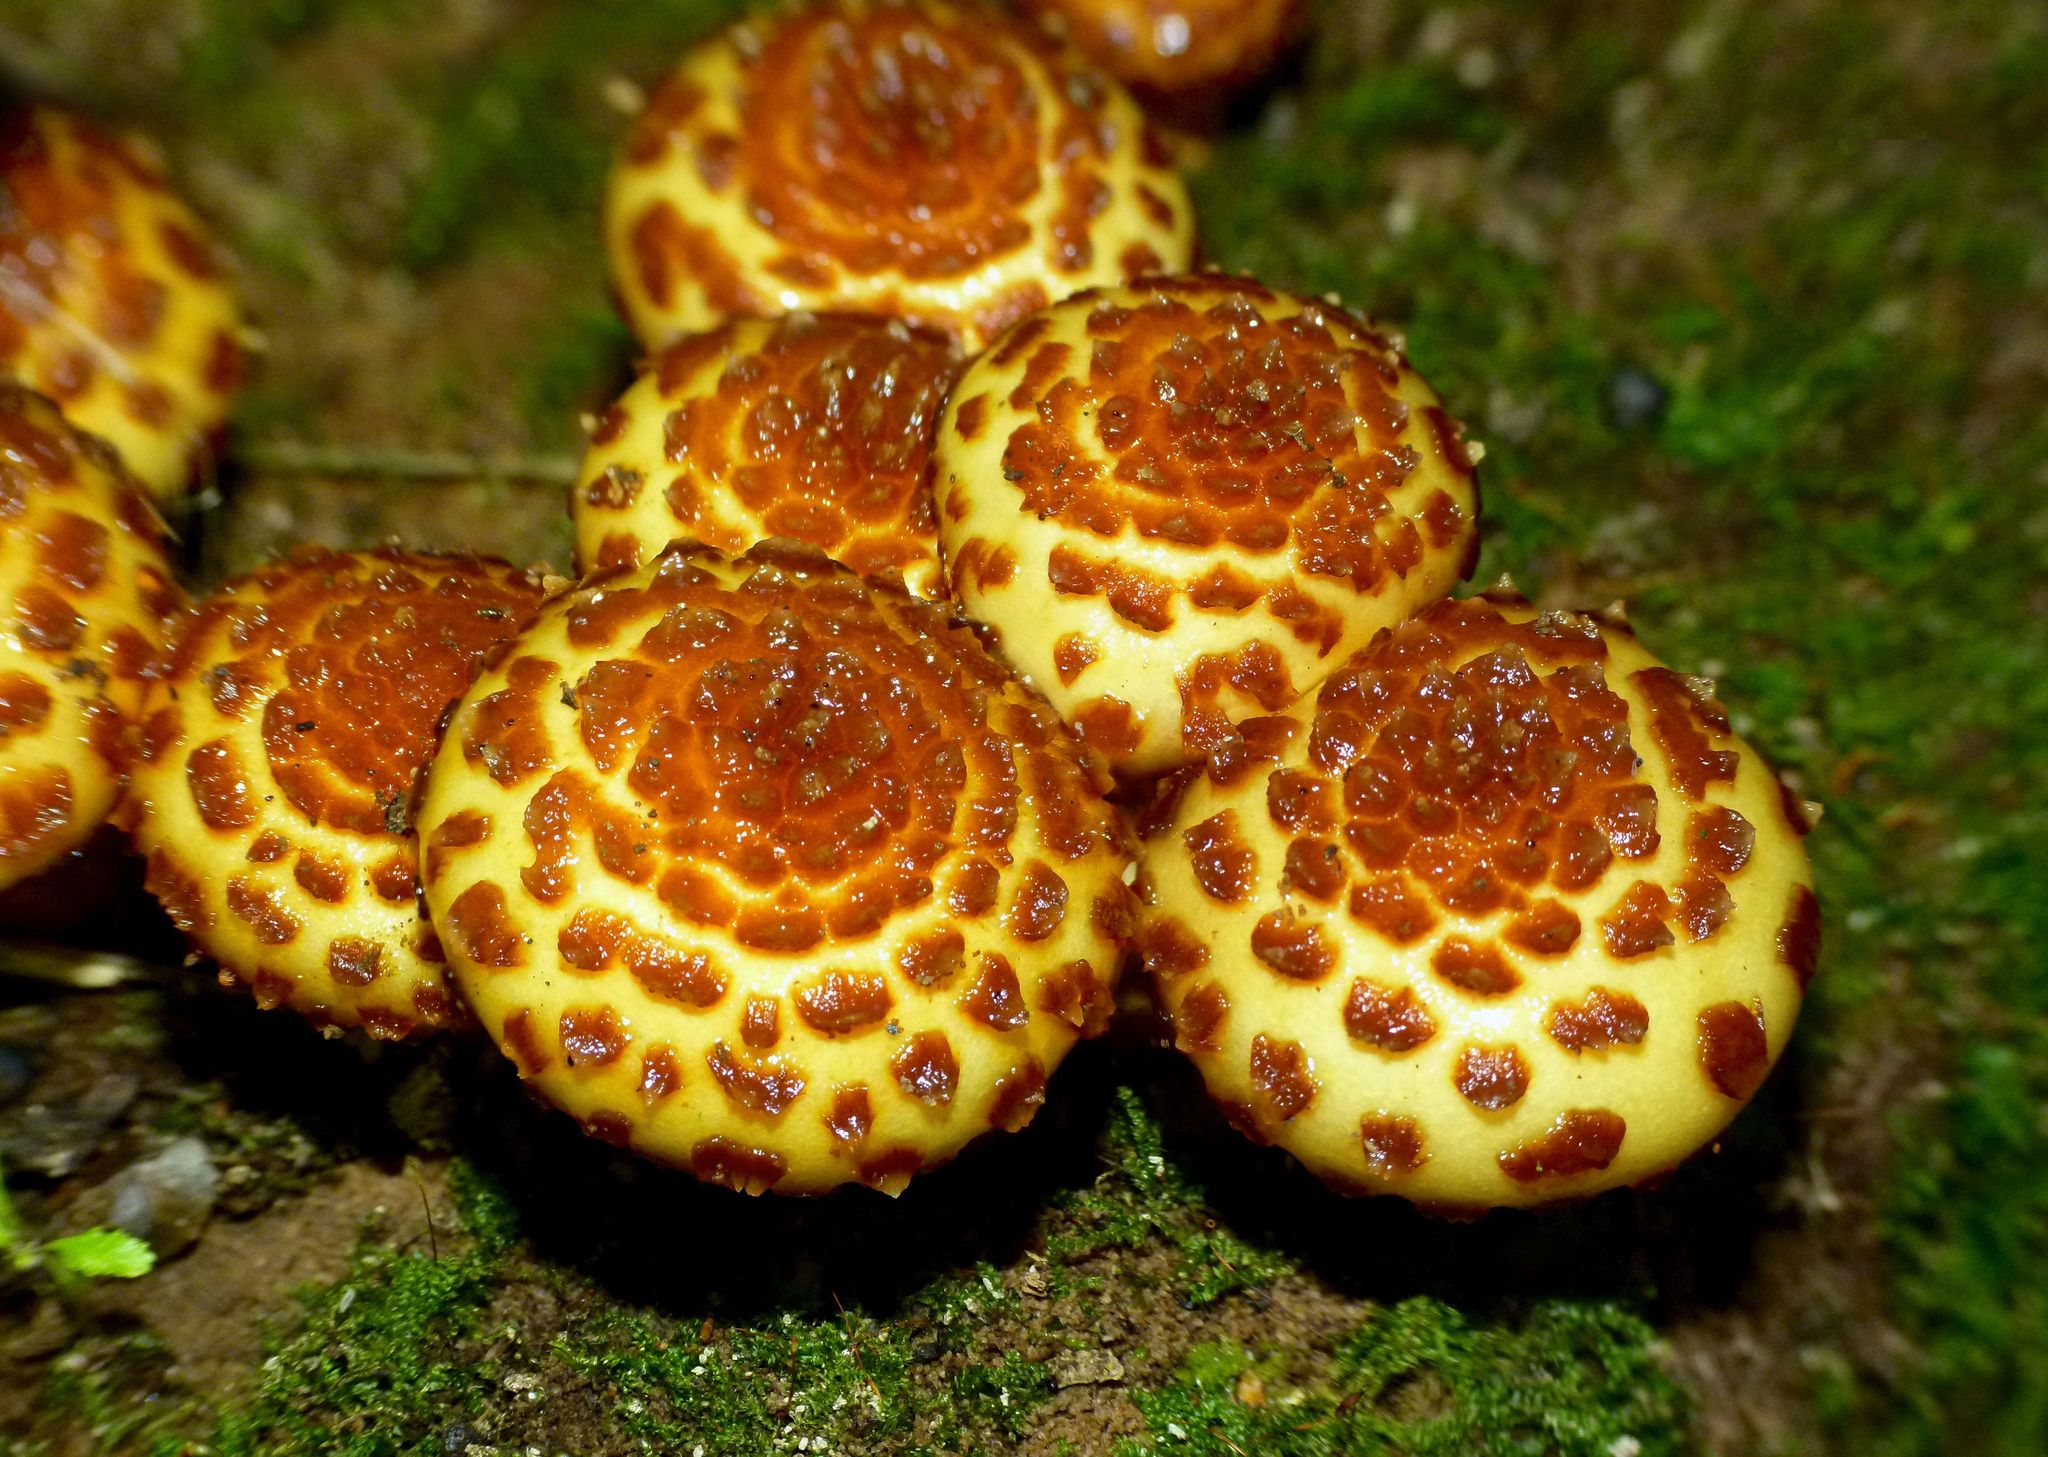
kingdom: Fungi
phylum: Basidiomycota
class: Agaricomycetes
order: Agaricales
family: Strophariaceae
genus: Pholiota
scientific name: Pholiota glutinosa
